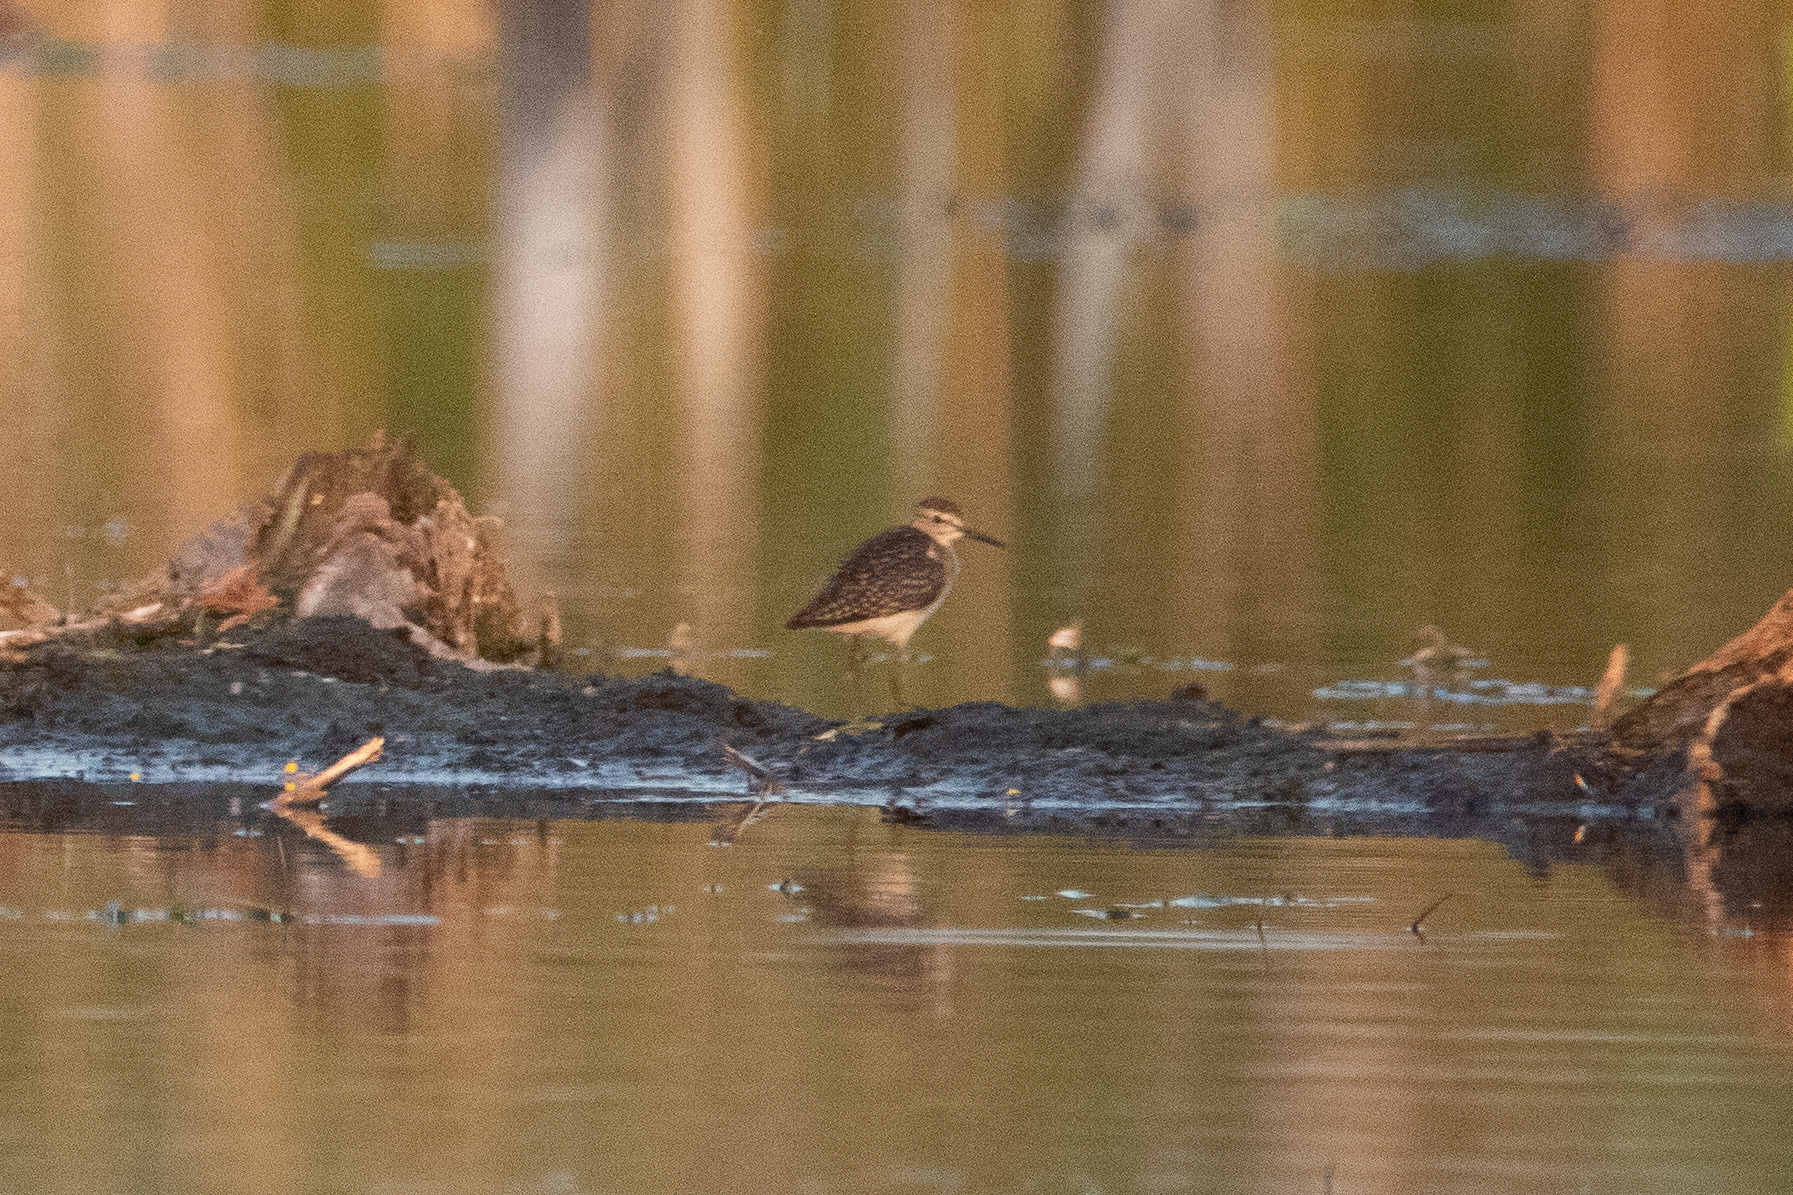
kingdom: Animalia
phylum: Chordata
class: Aves
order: Charadriiformes
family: Scolopacidae
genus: Tringa
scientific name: Tringa glareola
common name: Wood sandpiper
